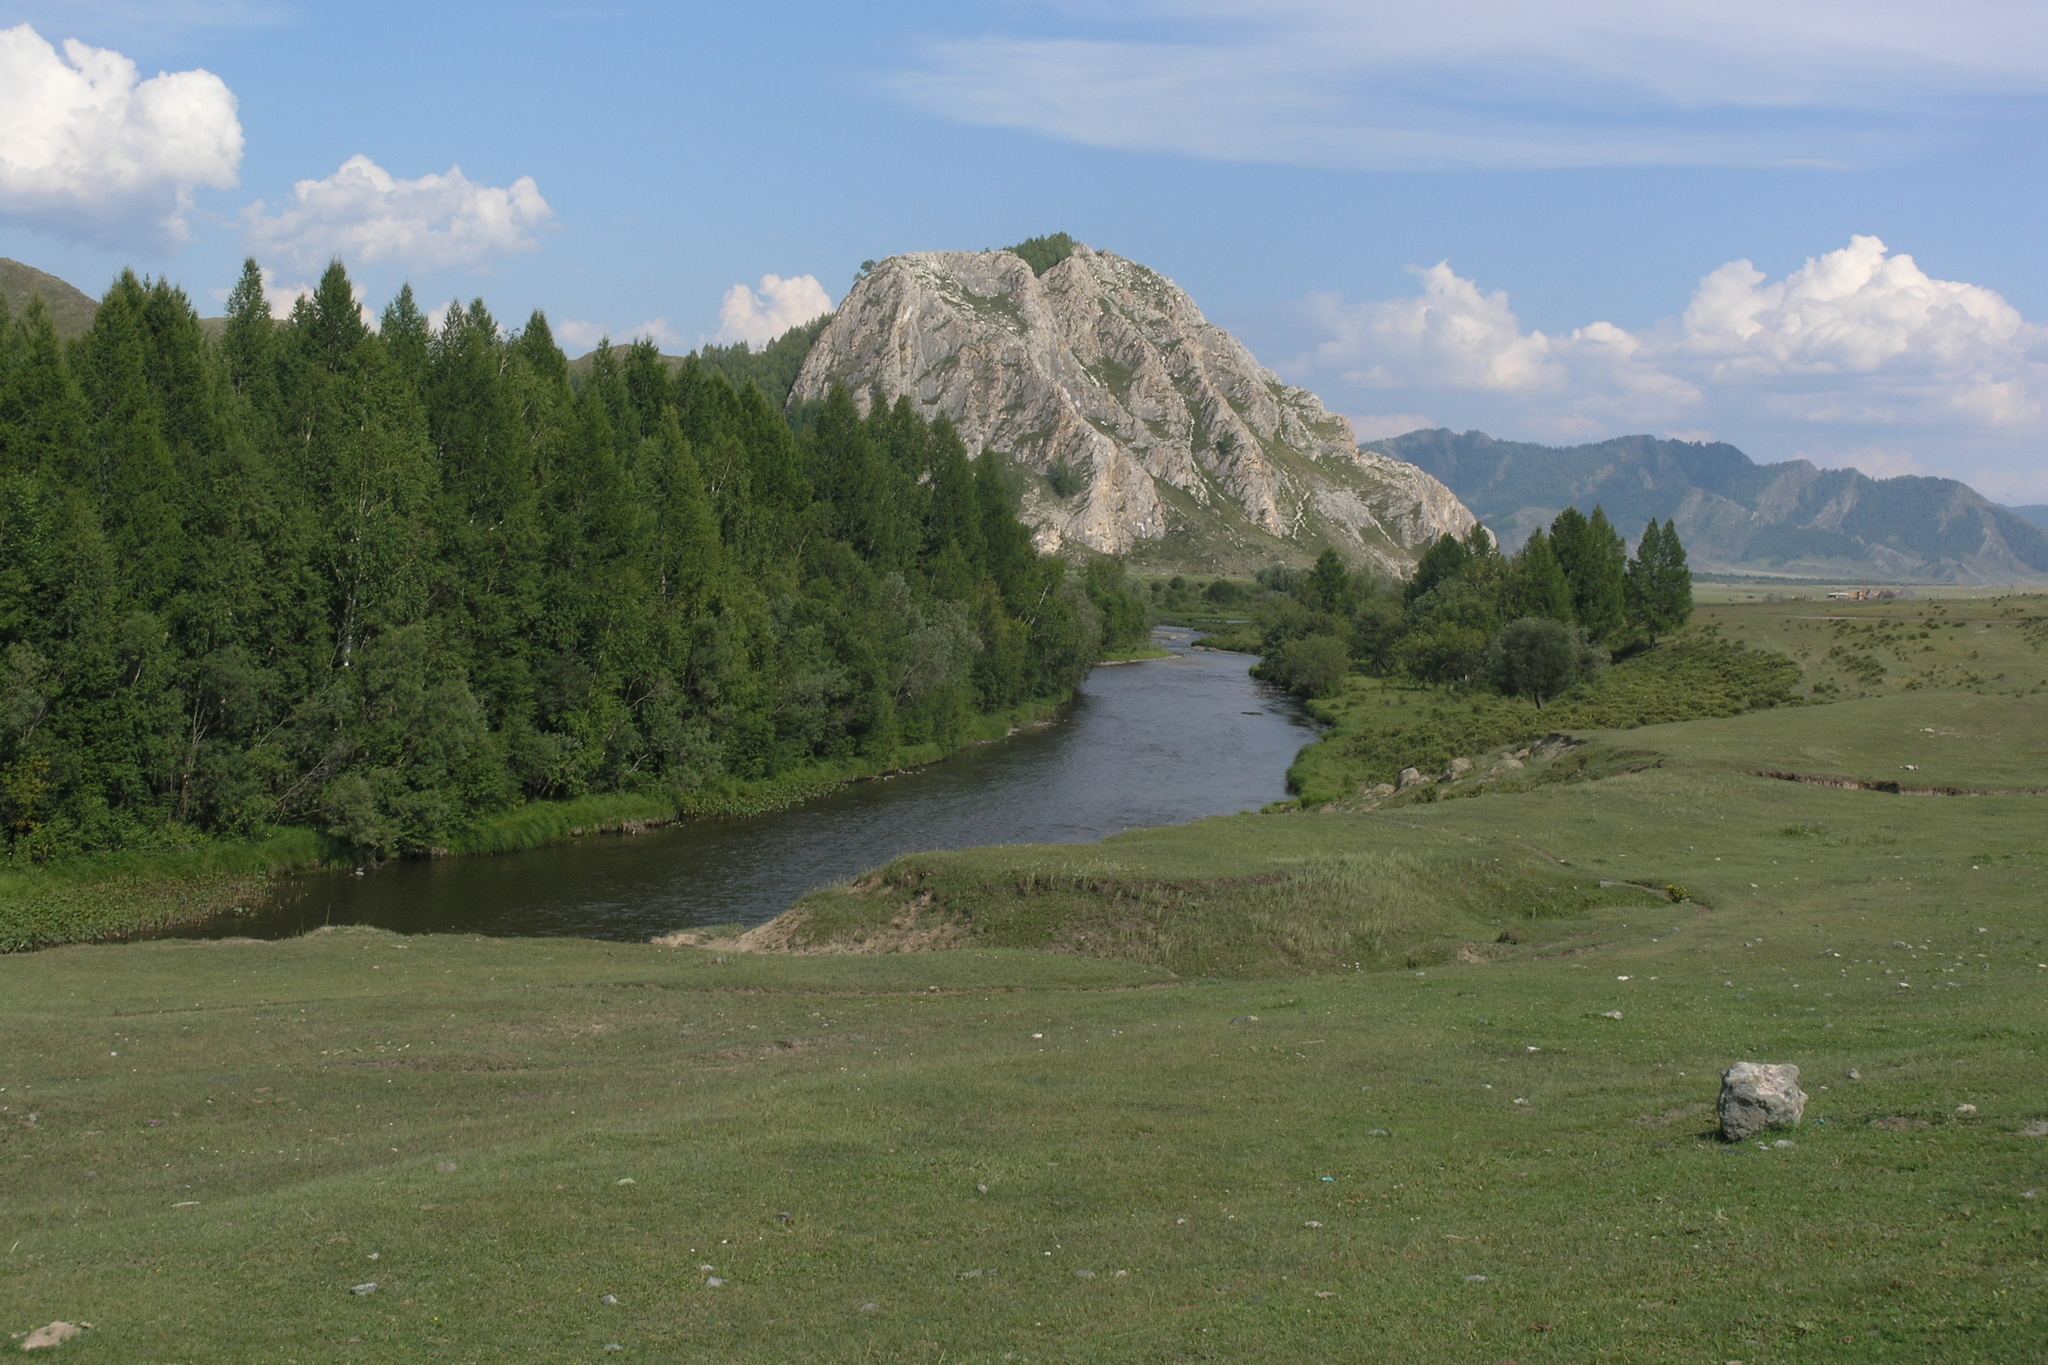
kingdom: Plantae
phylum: Tracheophyta
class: Pinopsida
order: Pinales
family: Pinaceae
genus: Larix
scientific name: Larix sibirica
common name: Siberian larch
